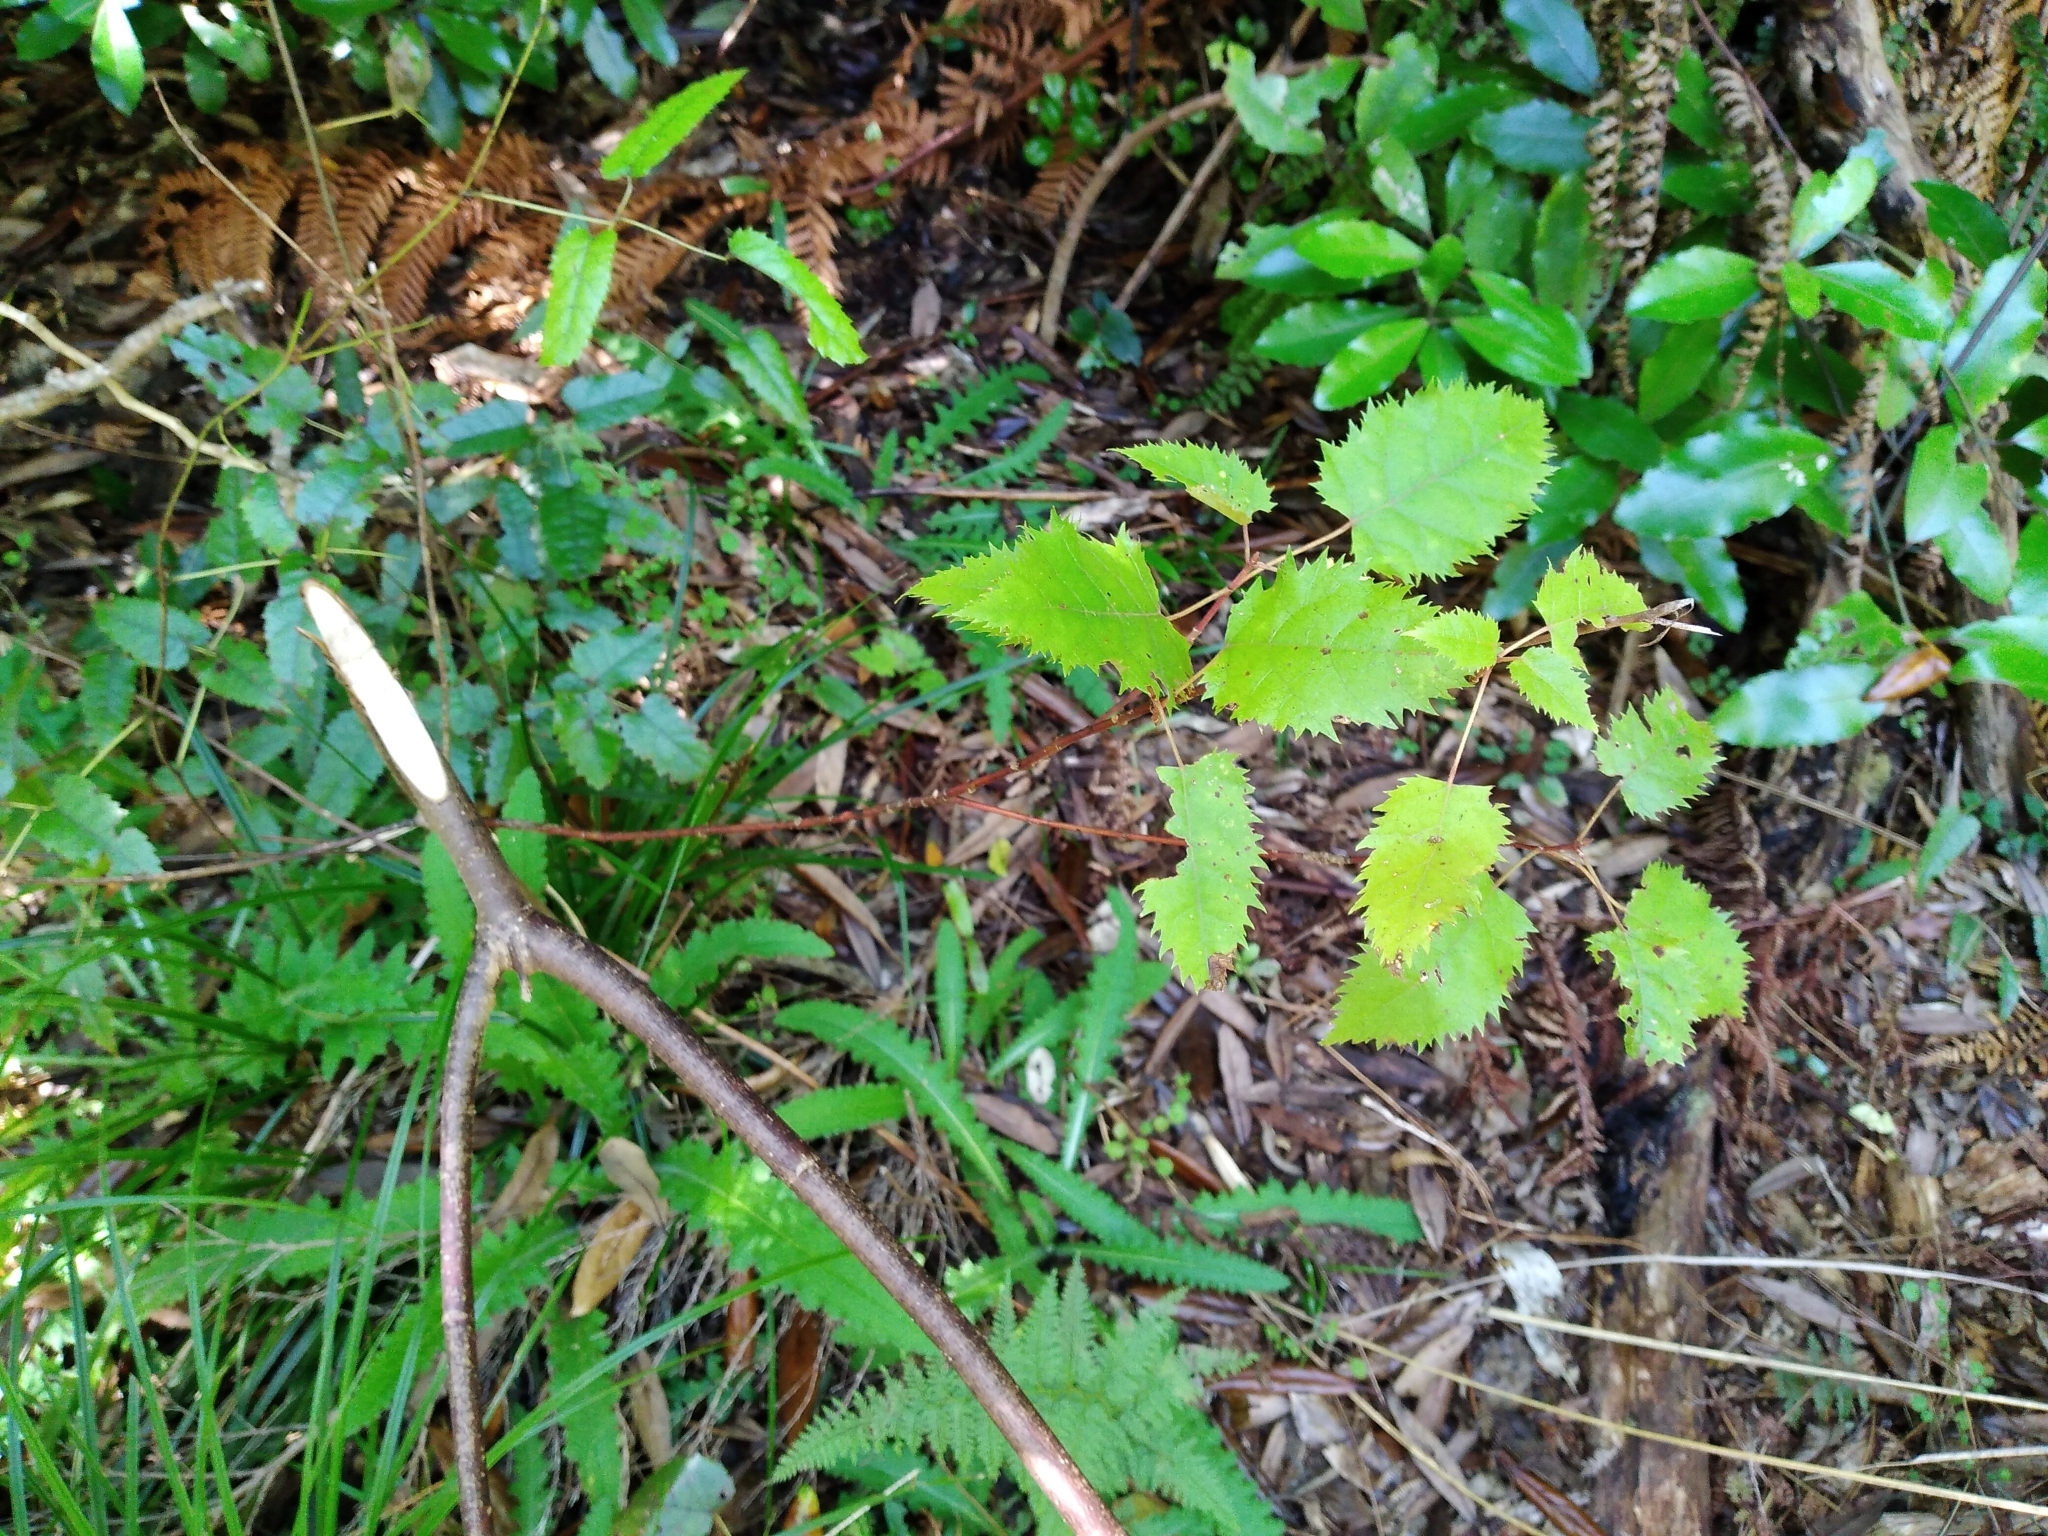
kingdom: Plantae
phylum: Tracheophyta
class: Magnoliopsida
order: Oxalidales
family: Elaeocarpaceae
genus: Aristotelia
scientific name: Aristotelia serrata
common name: New zealand wineberry
